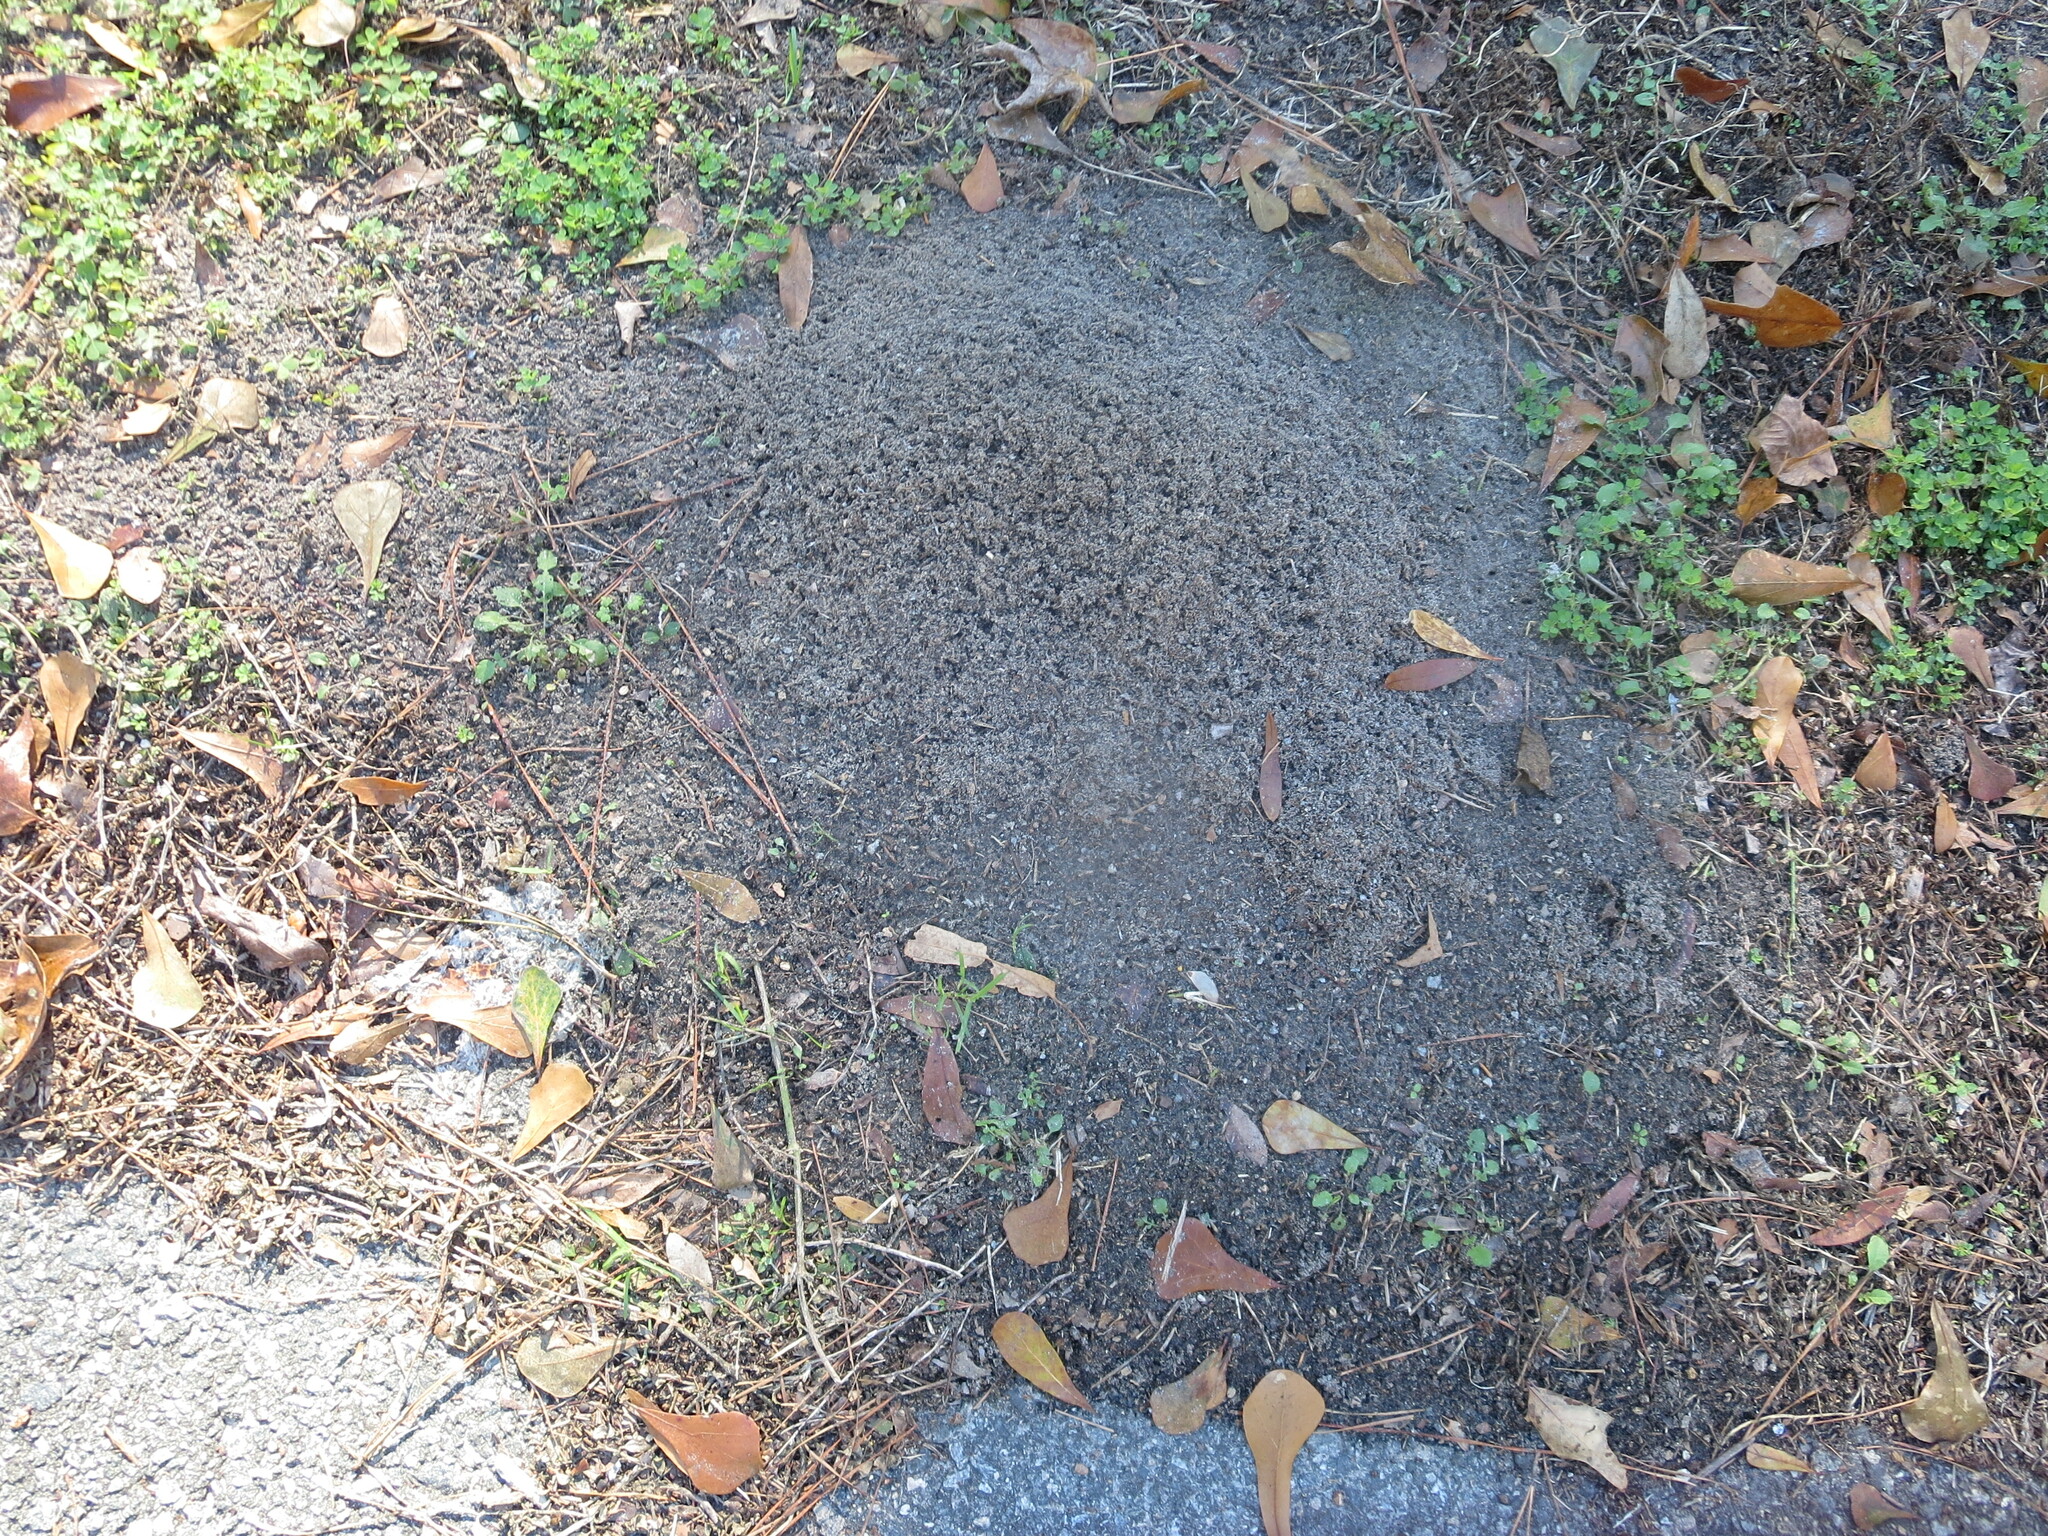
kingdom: Animalia
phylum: Arthropoda
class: Insecta
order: Hymenoptera
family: Formicidae
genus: Solenopsis
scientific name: Solenopsis invicta
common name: Red imported fire ant
